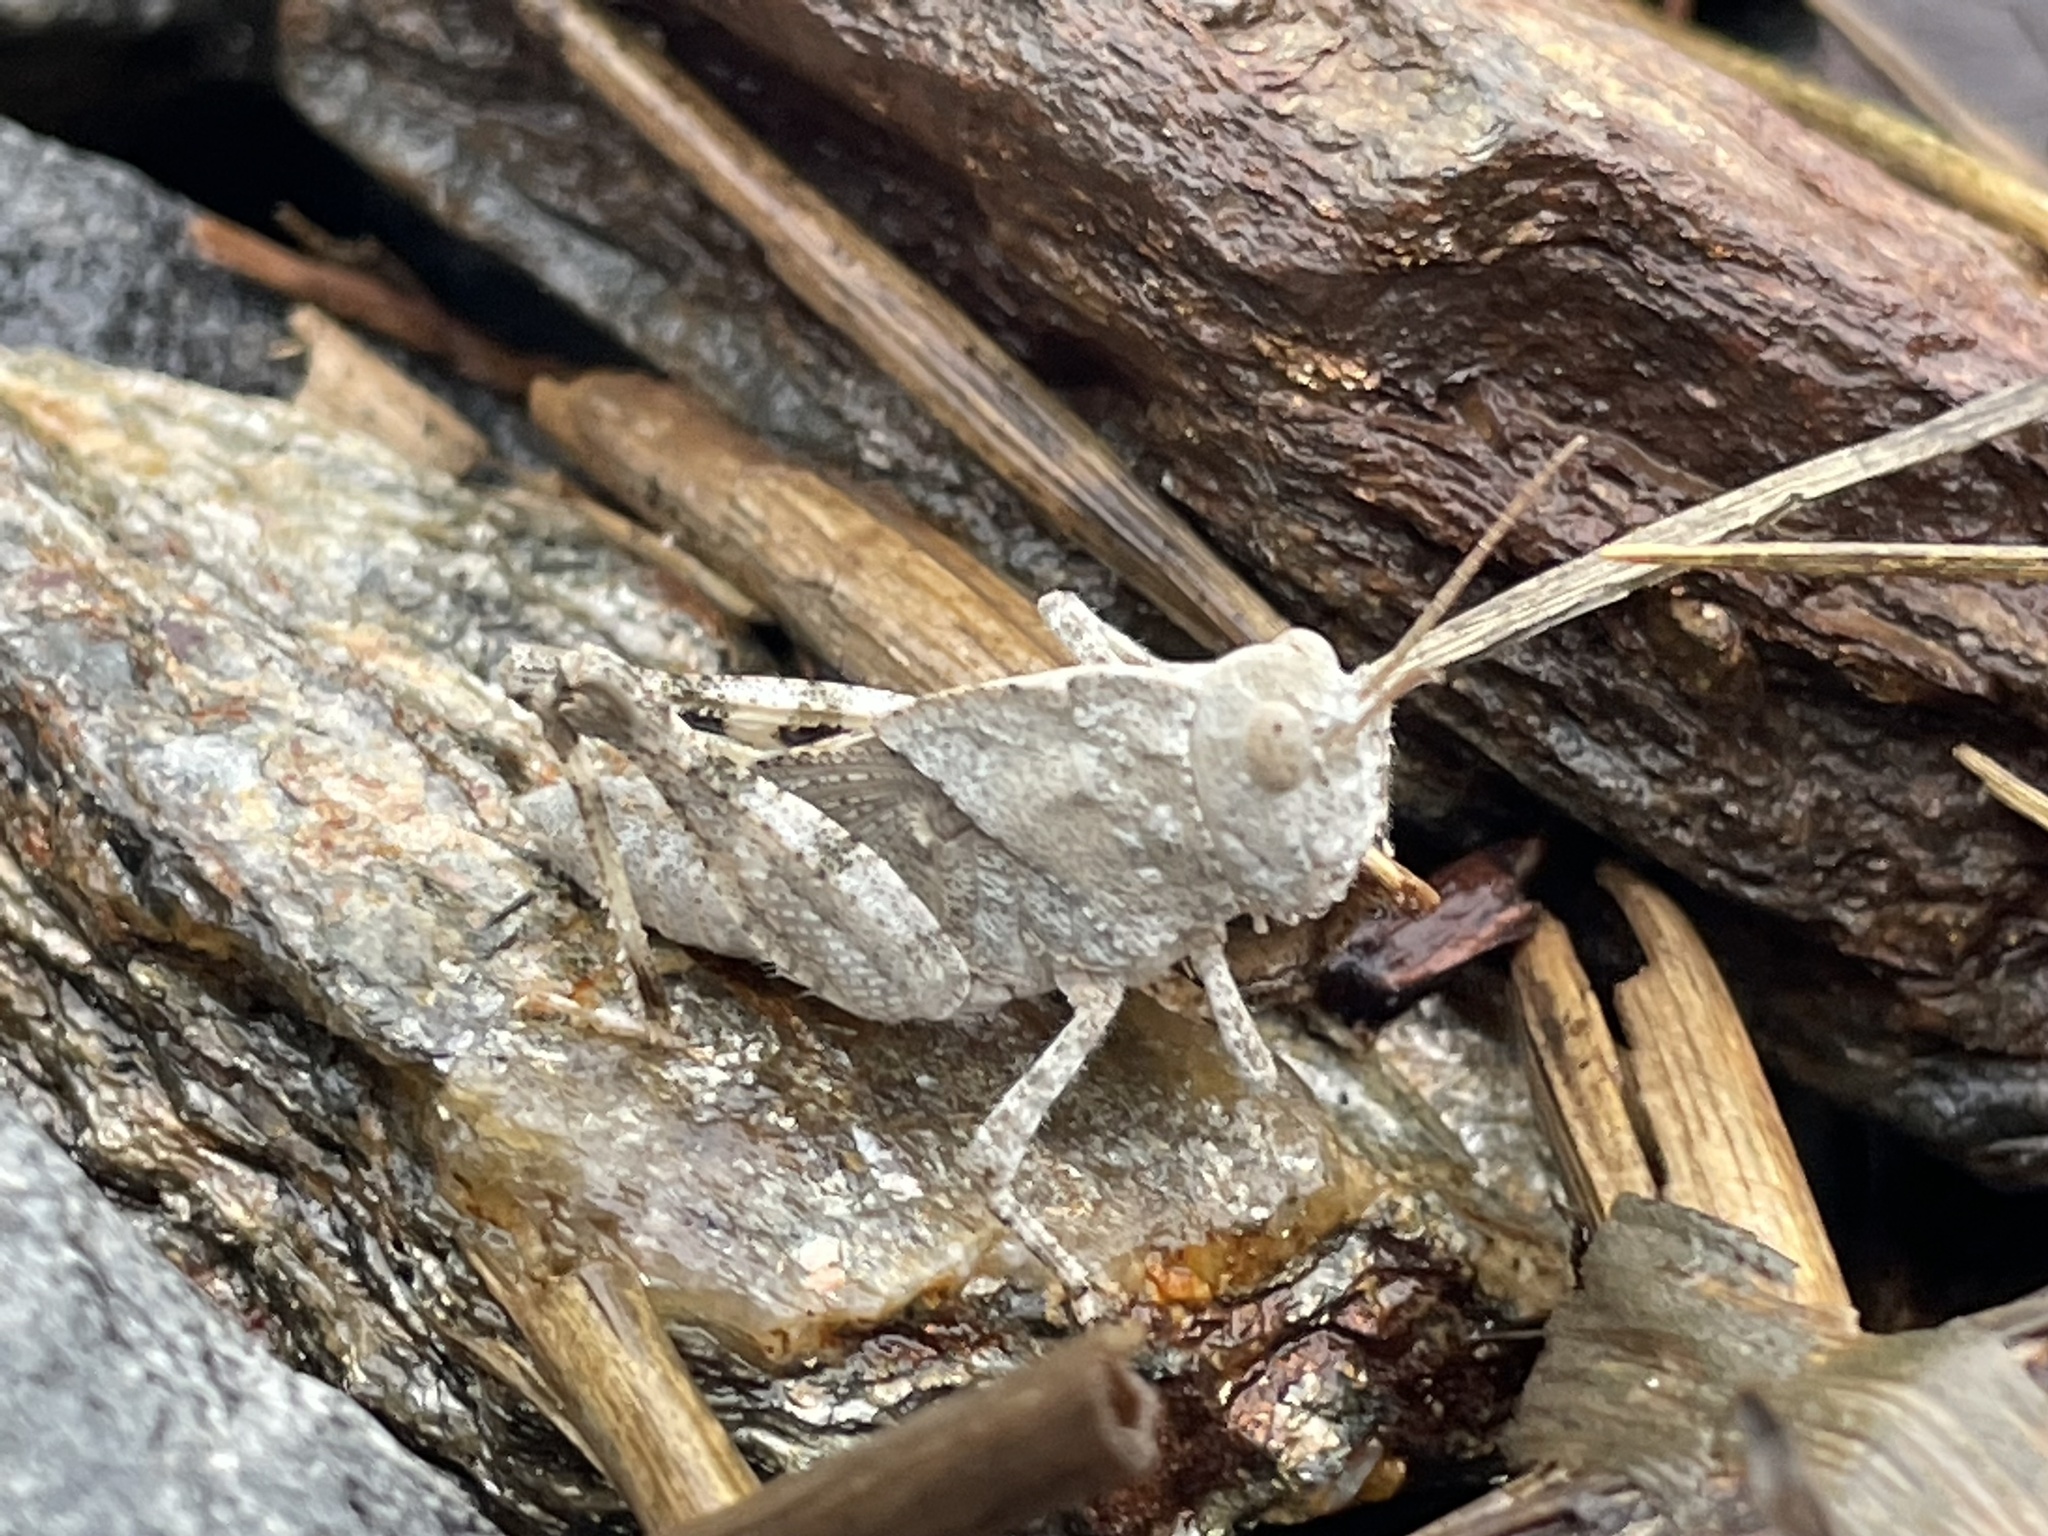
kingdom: Animalia
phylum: Arthropoda
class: Insecta
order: Orthoptera
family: Acrididae
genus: Dissosteira
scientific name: Dissosteira carolina
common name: Carolina grasshopper
